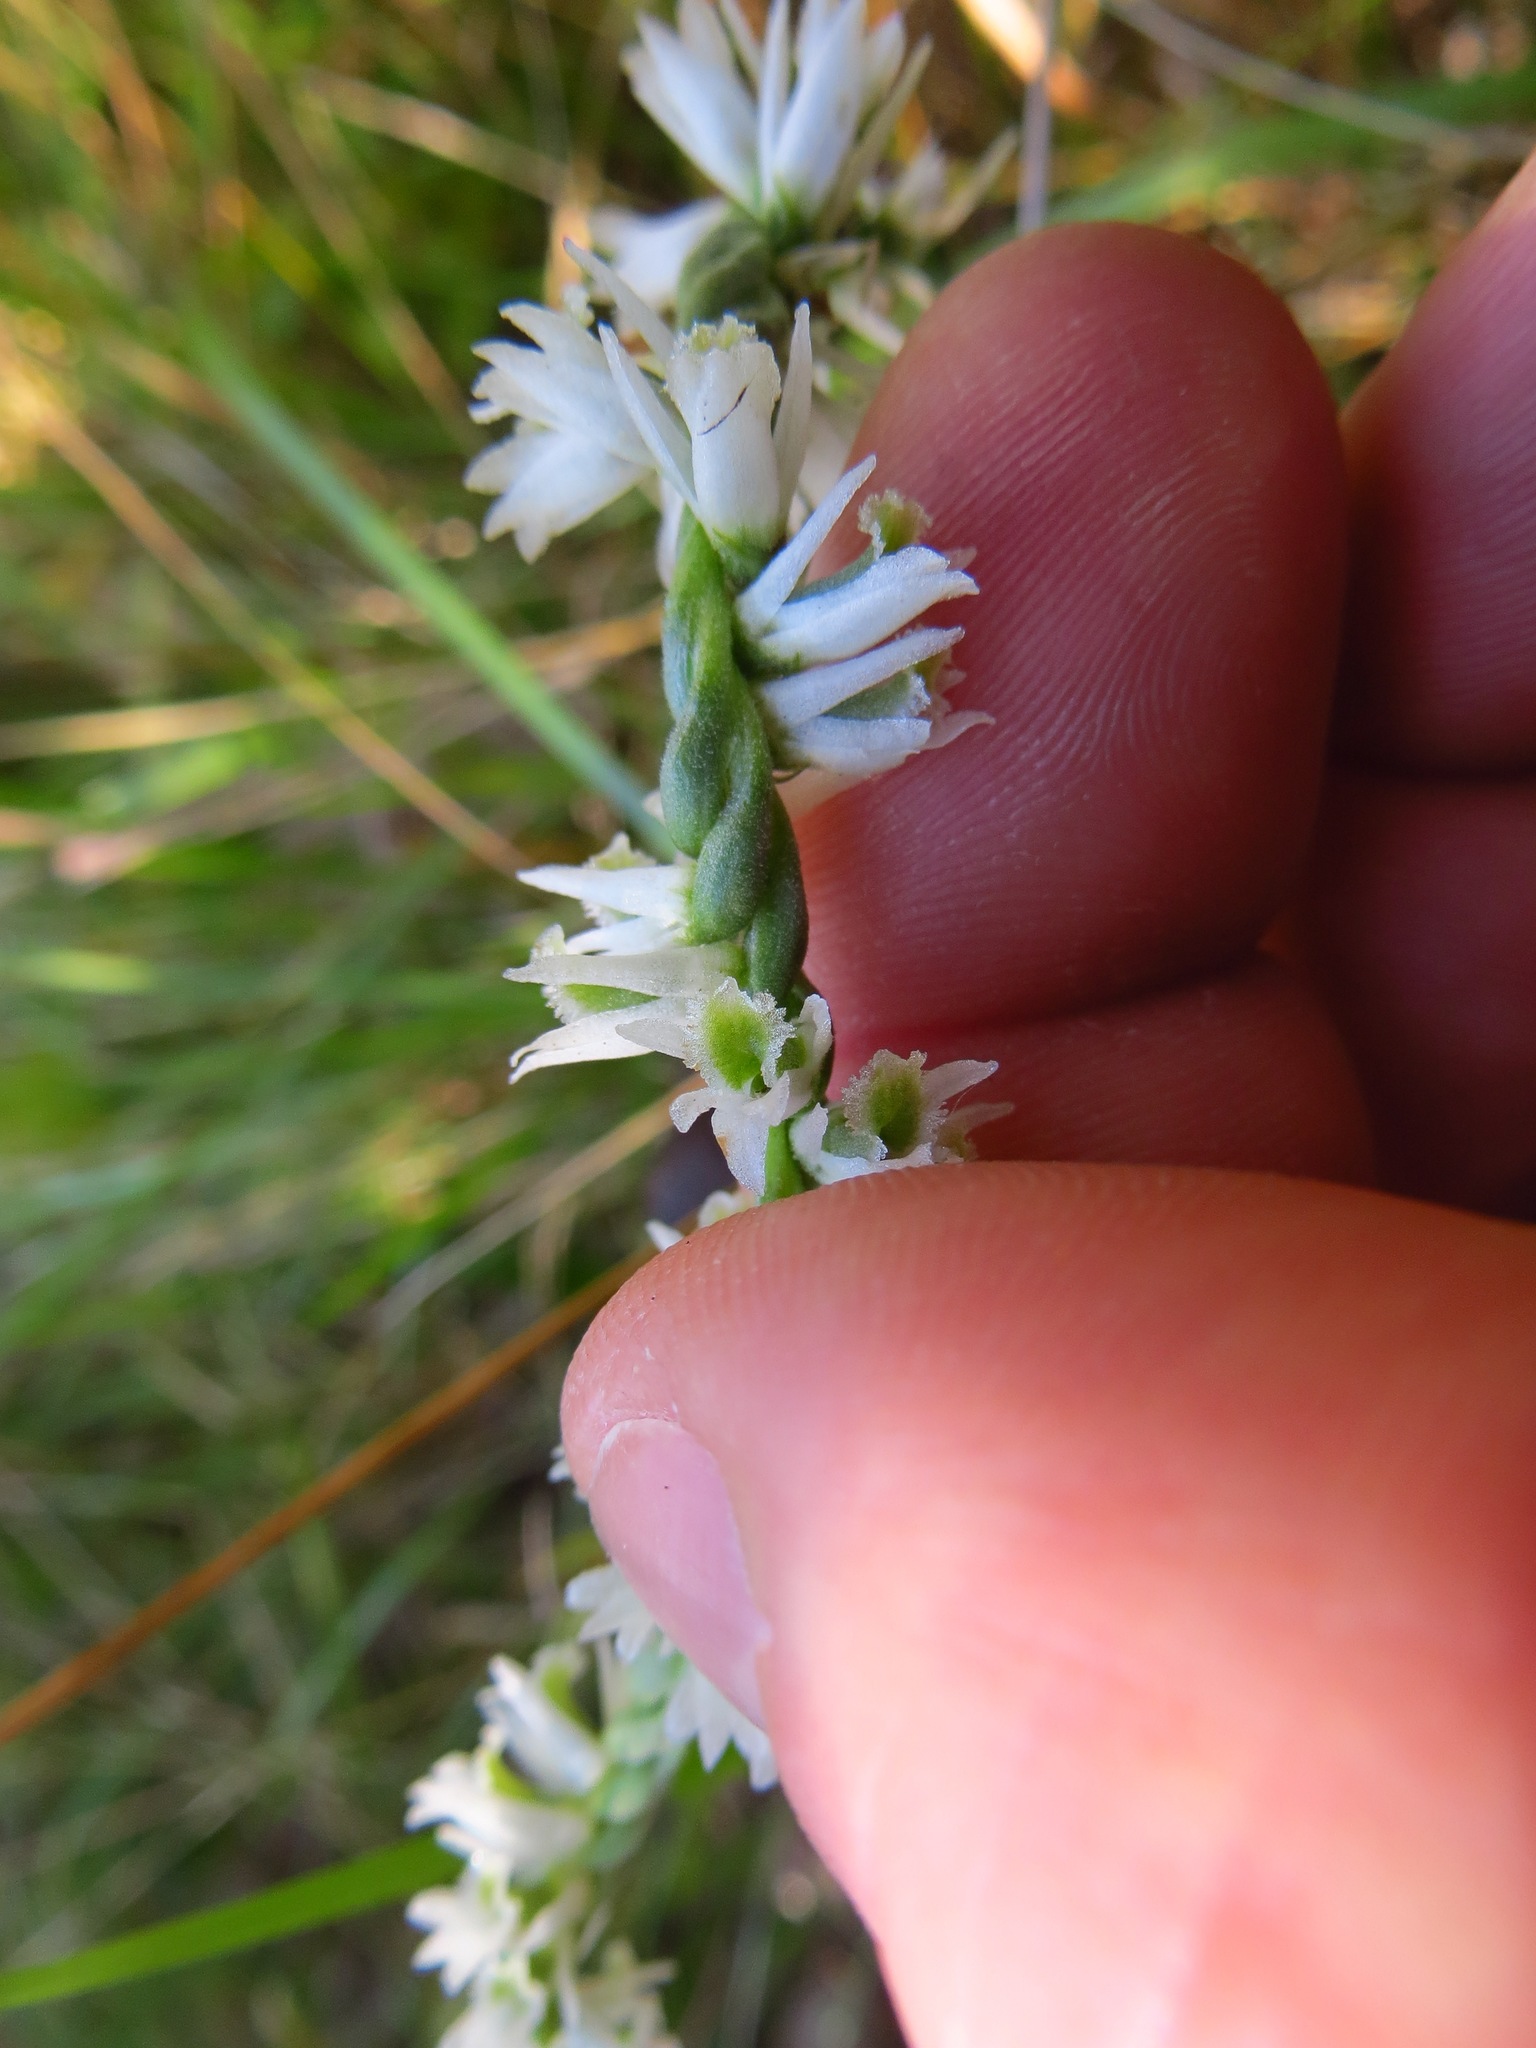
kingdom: Plantae
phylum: Tracheophyta
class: Liliopsida
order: Asparagales
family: Orchidaceae
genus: Spiranthes
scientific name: Spiranthes lacera
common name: Northern slender ladies'-tresses
